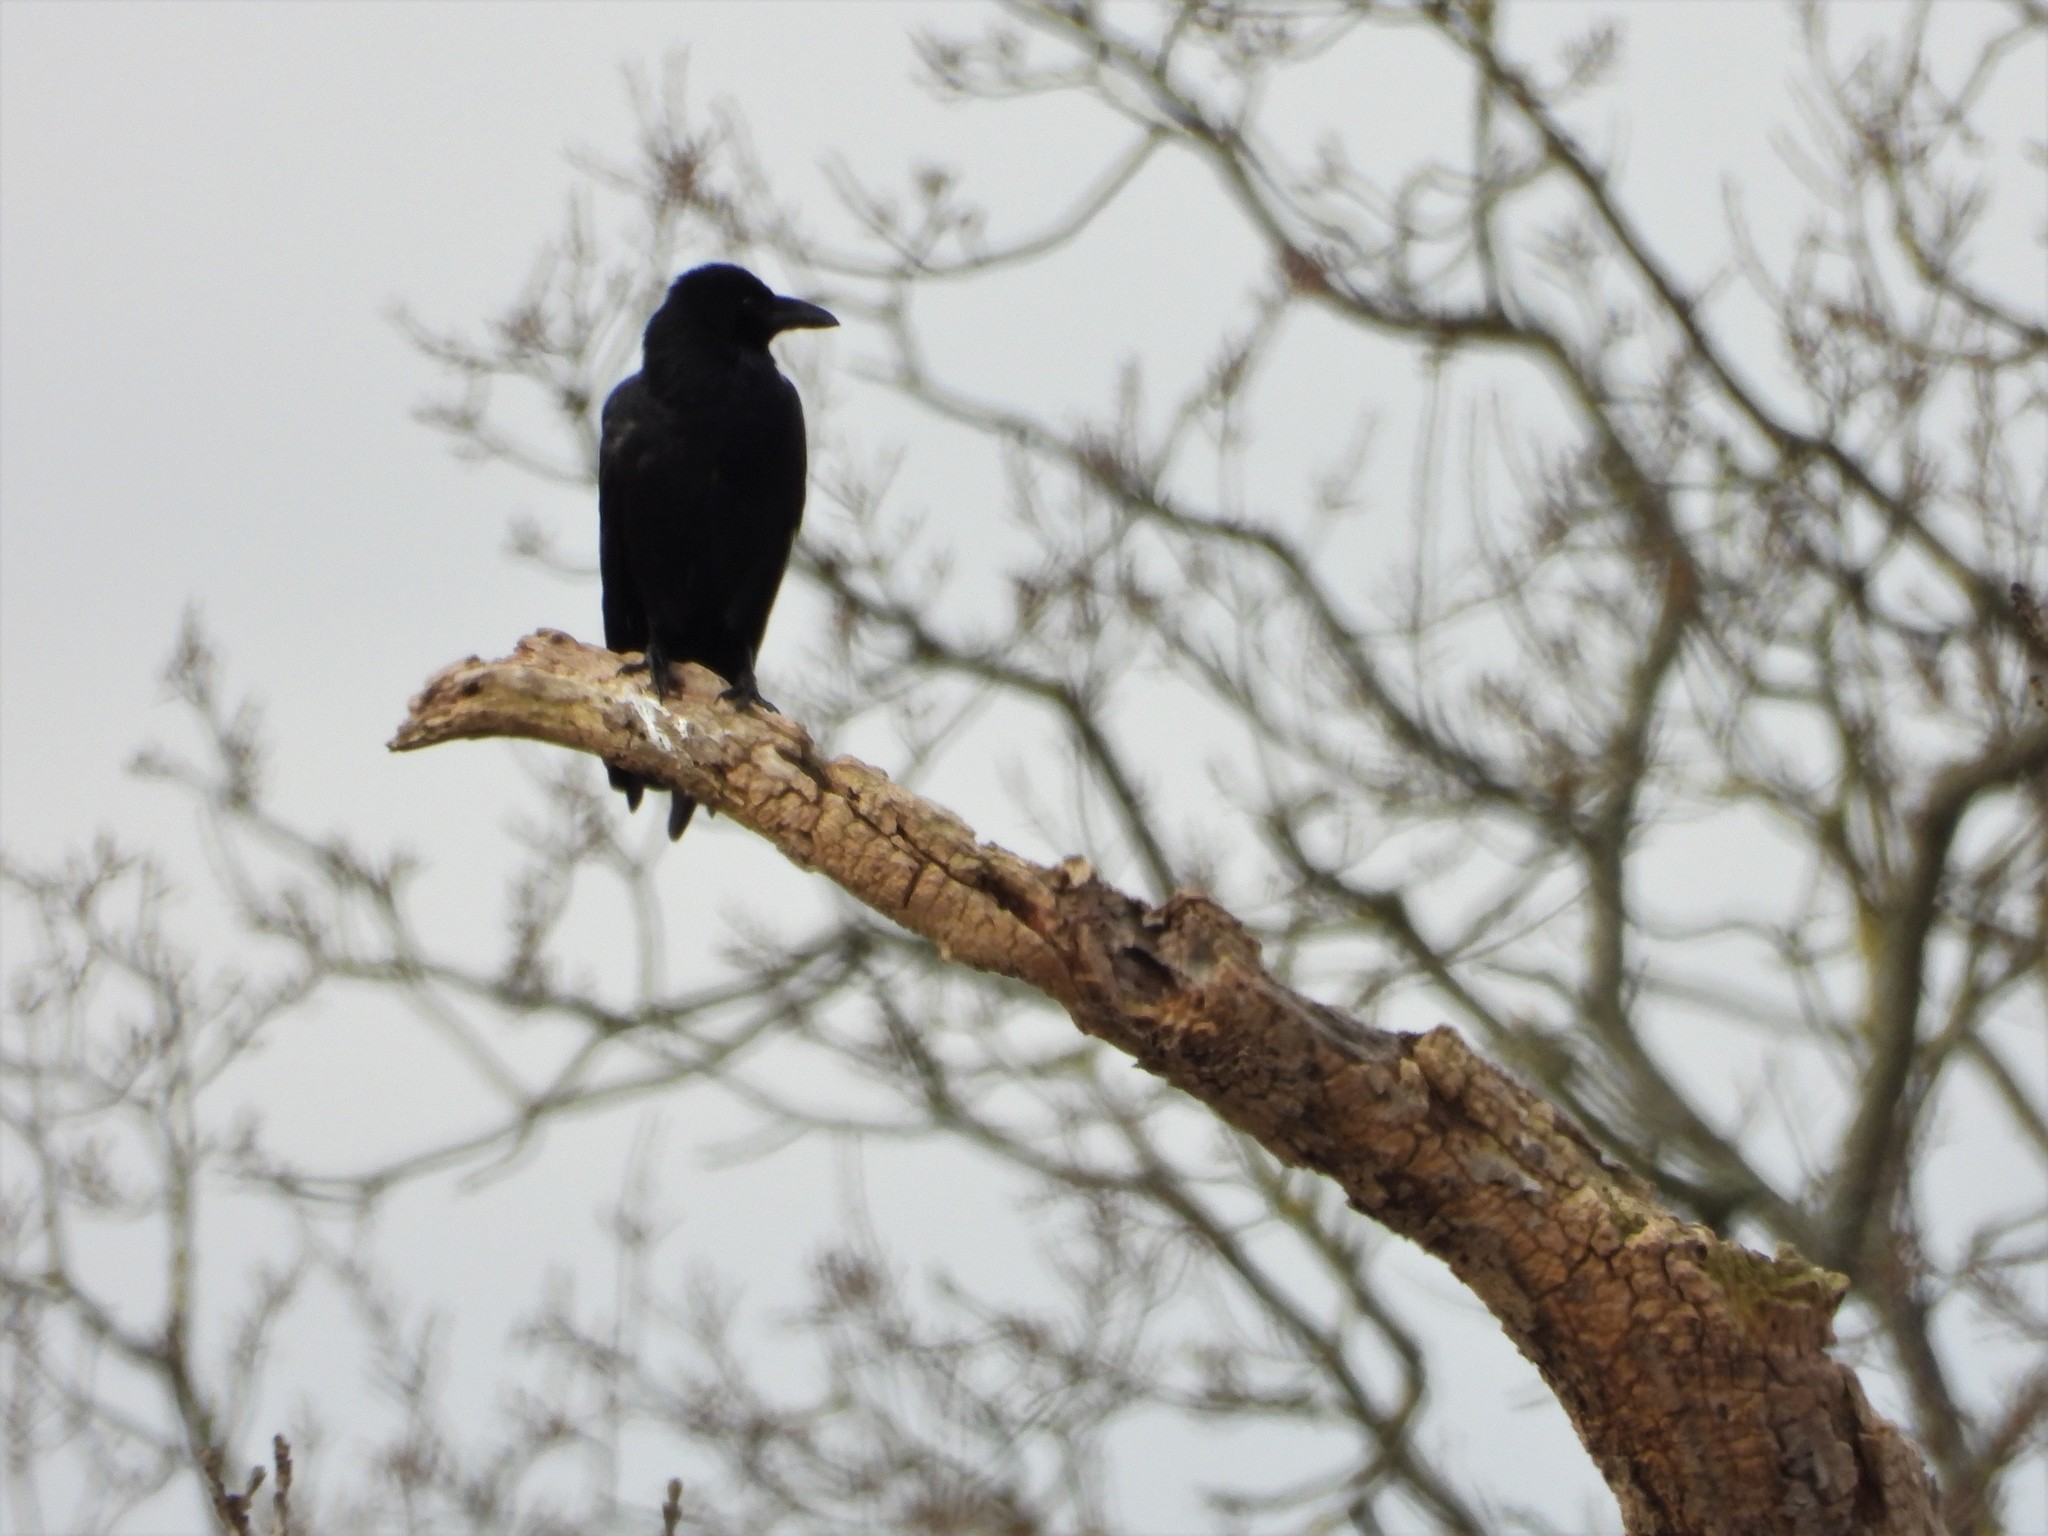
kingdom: Animalia
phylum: Chordata
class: Aves
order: Passeriformes
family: Corvidae
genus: Corvus
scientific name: Corvus corone
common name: Carrion crow
